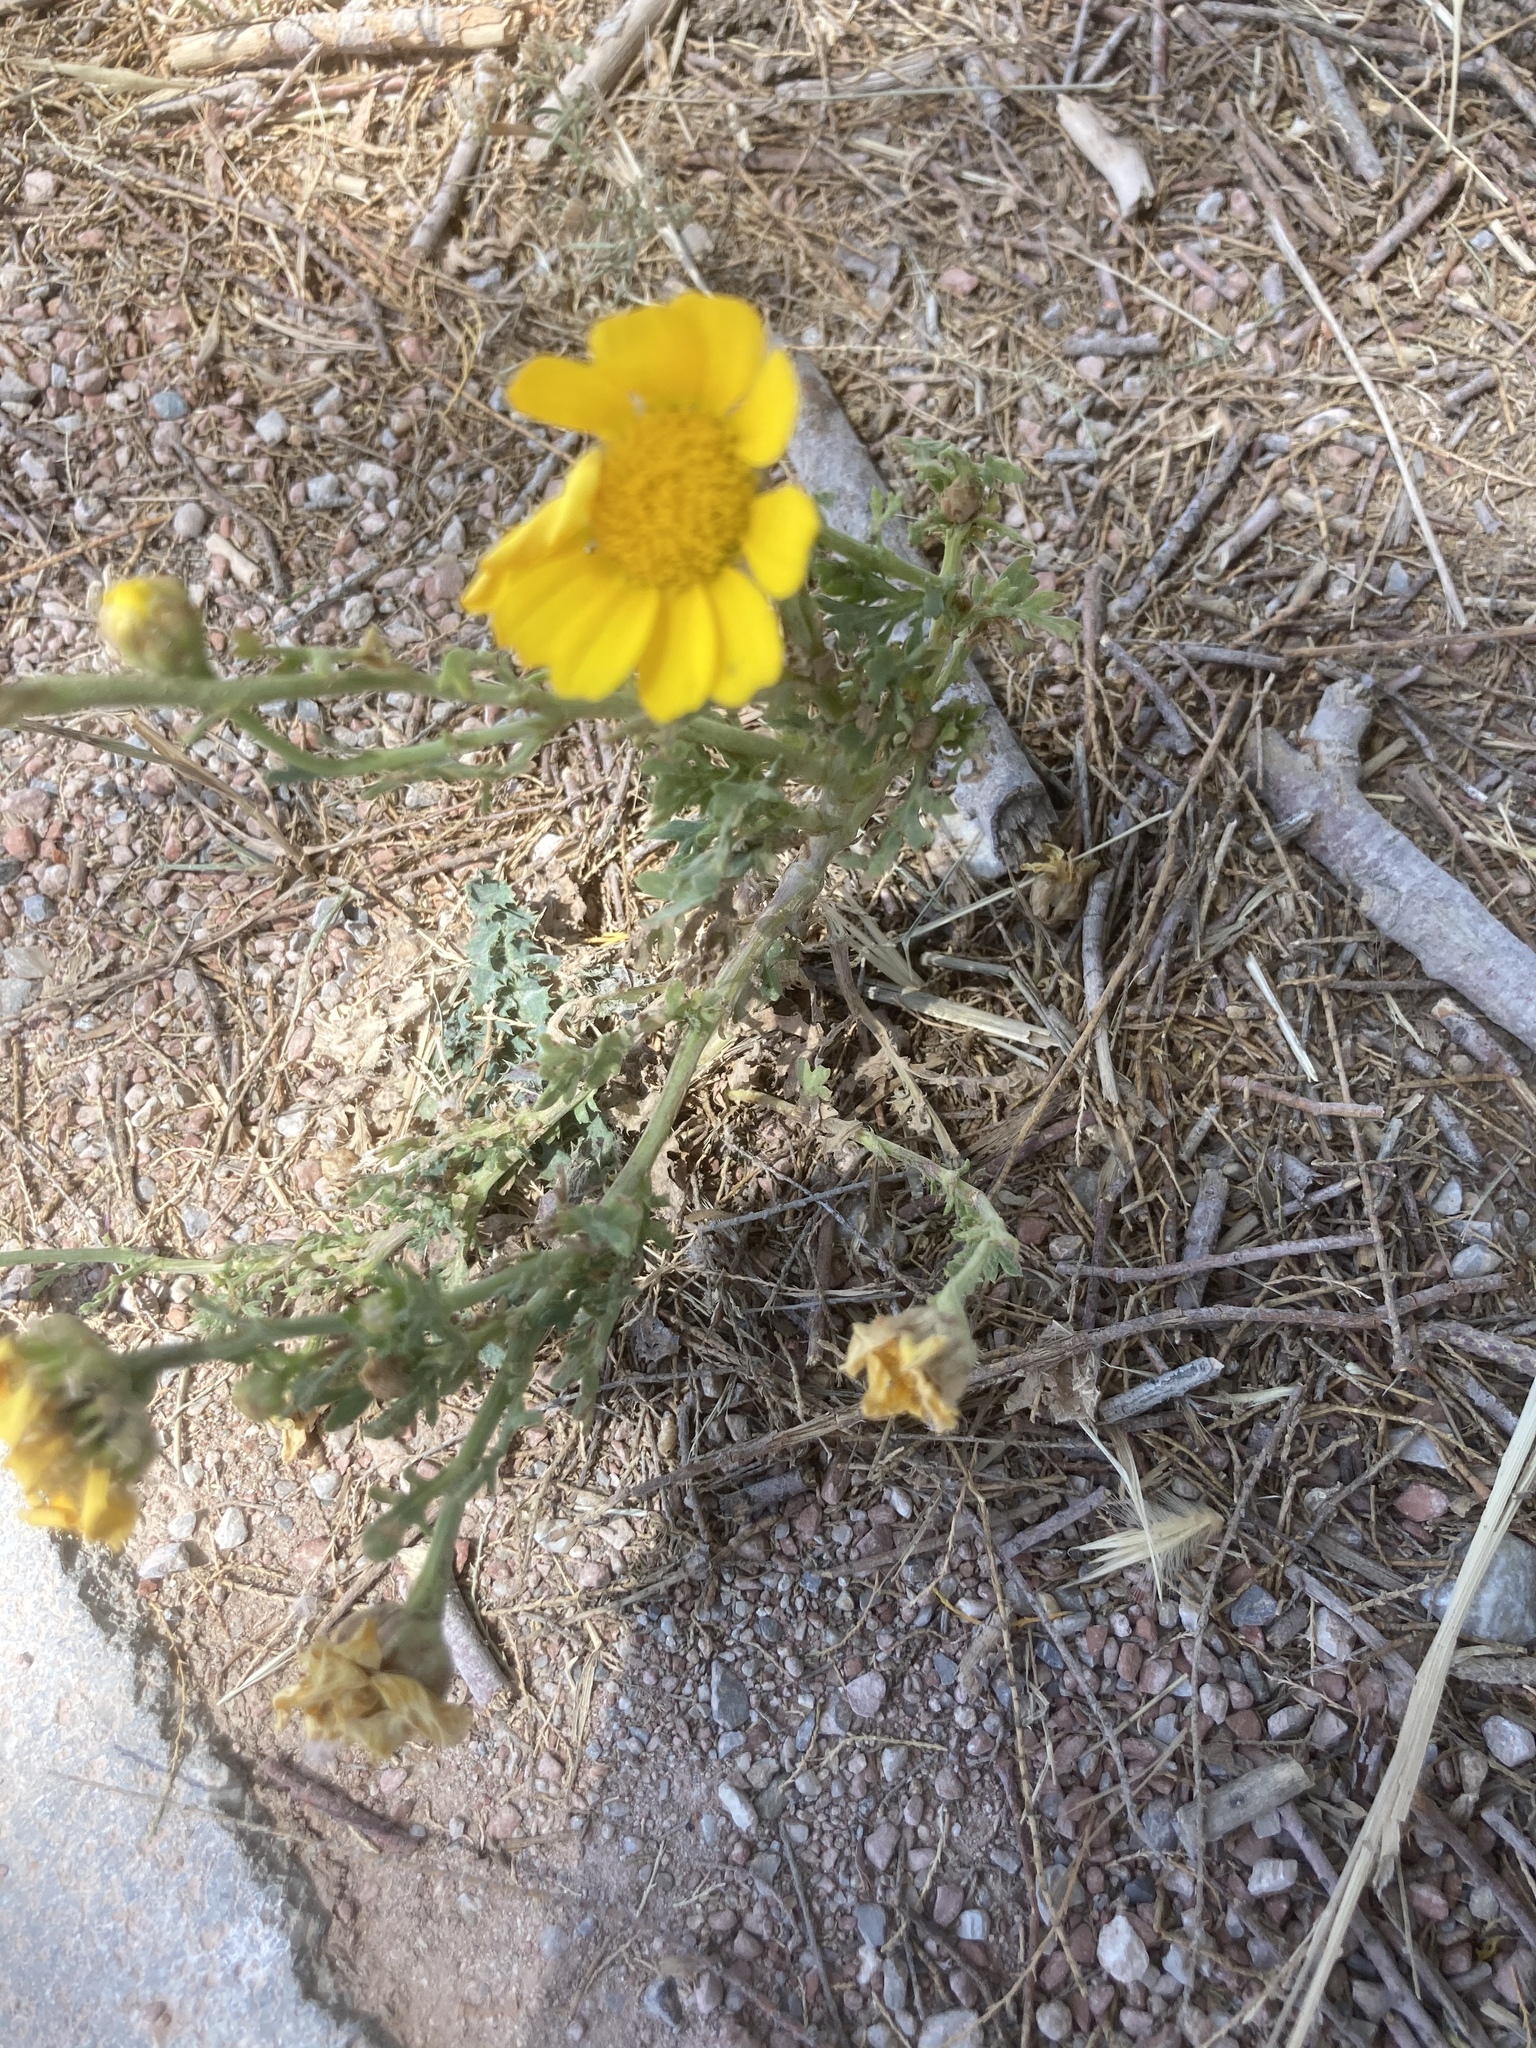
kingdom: Plantae
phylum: Tracheophyta
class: Magnoliopsida
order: Asterales
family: Asteraceae
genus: Glebionis
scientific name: Glebionis coronaria
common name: Crowndaisy
